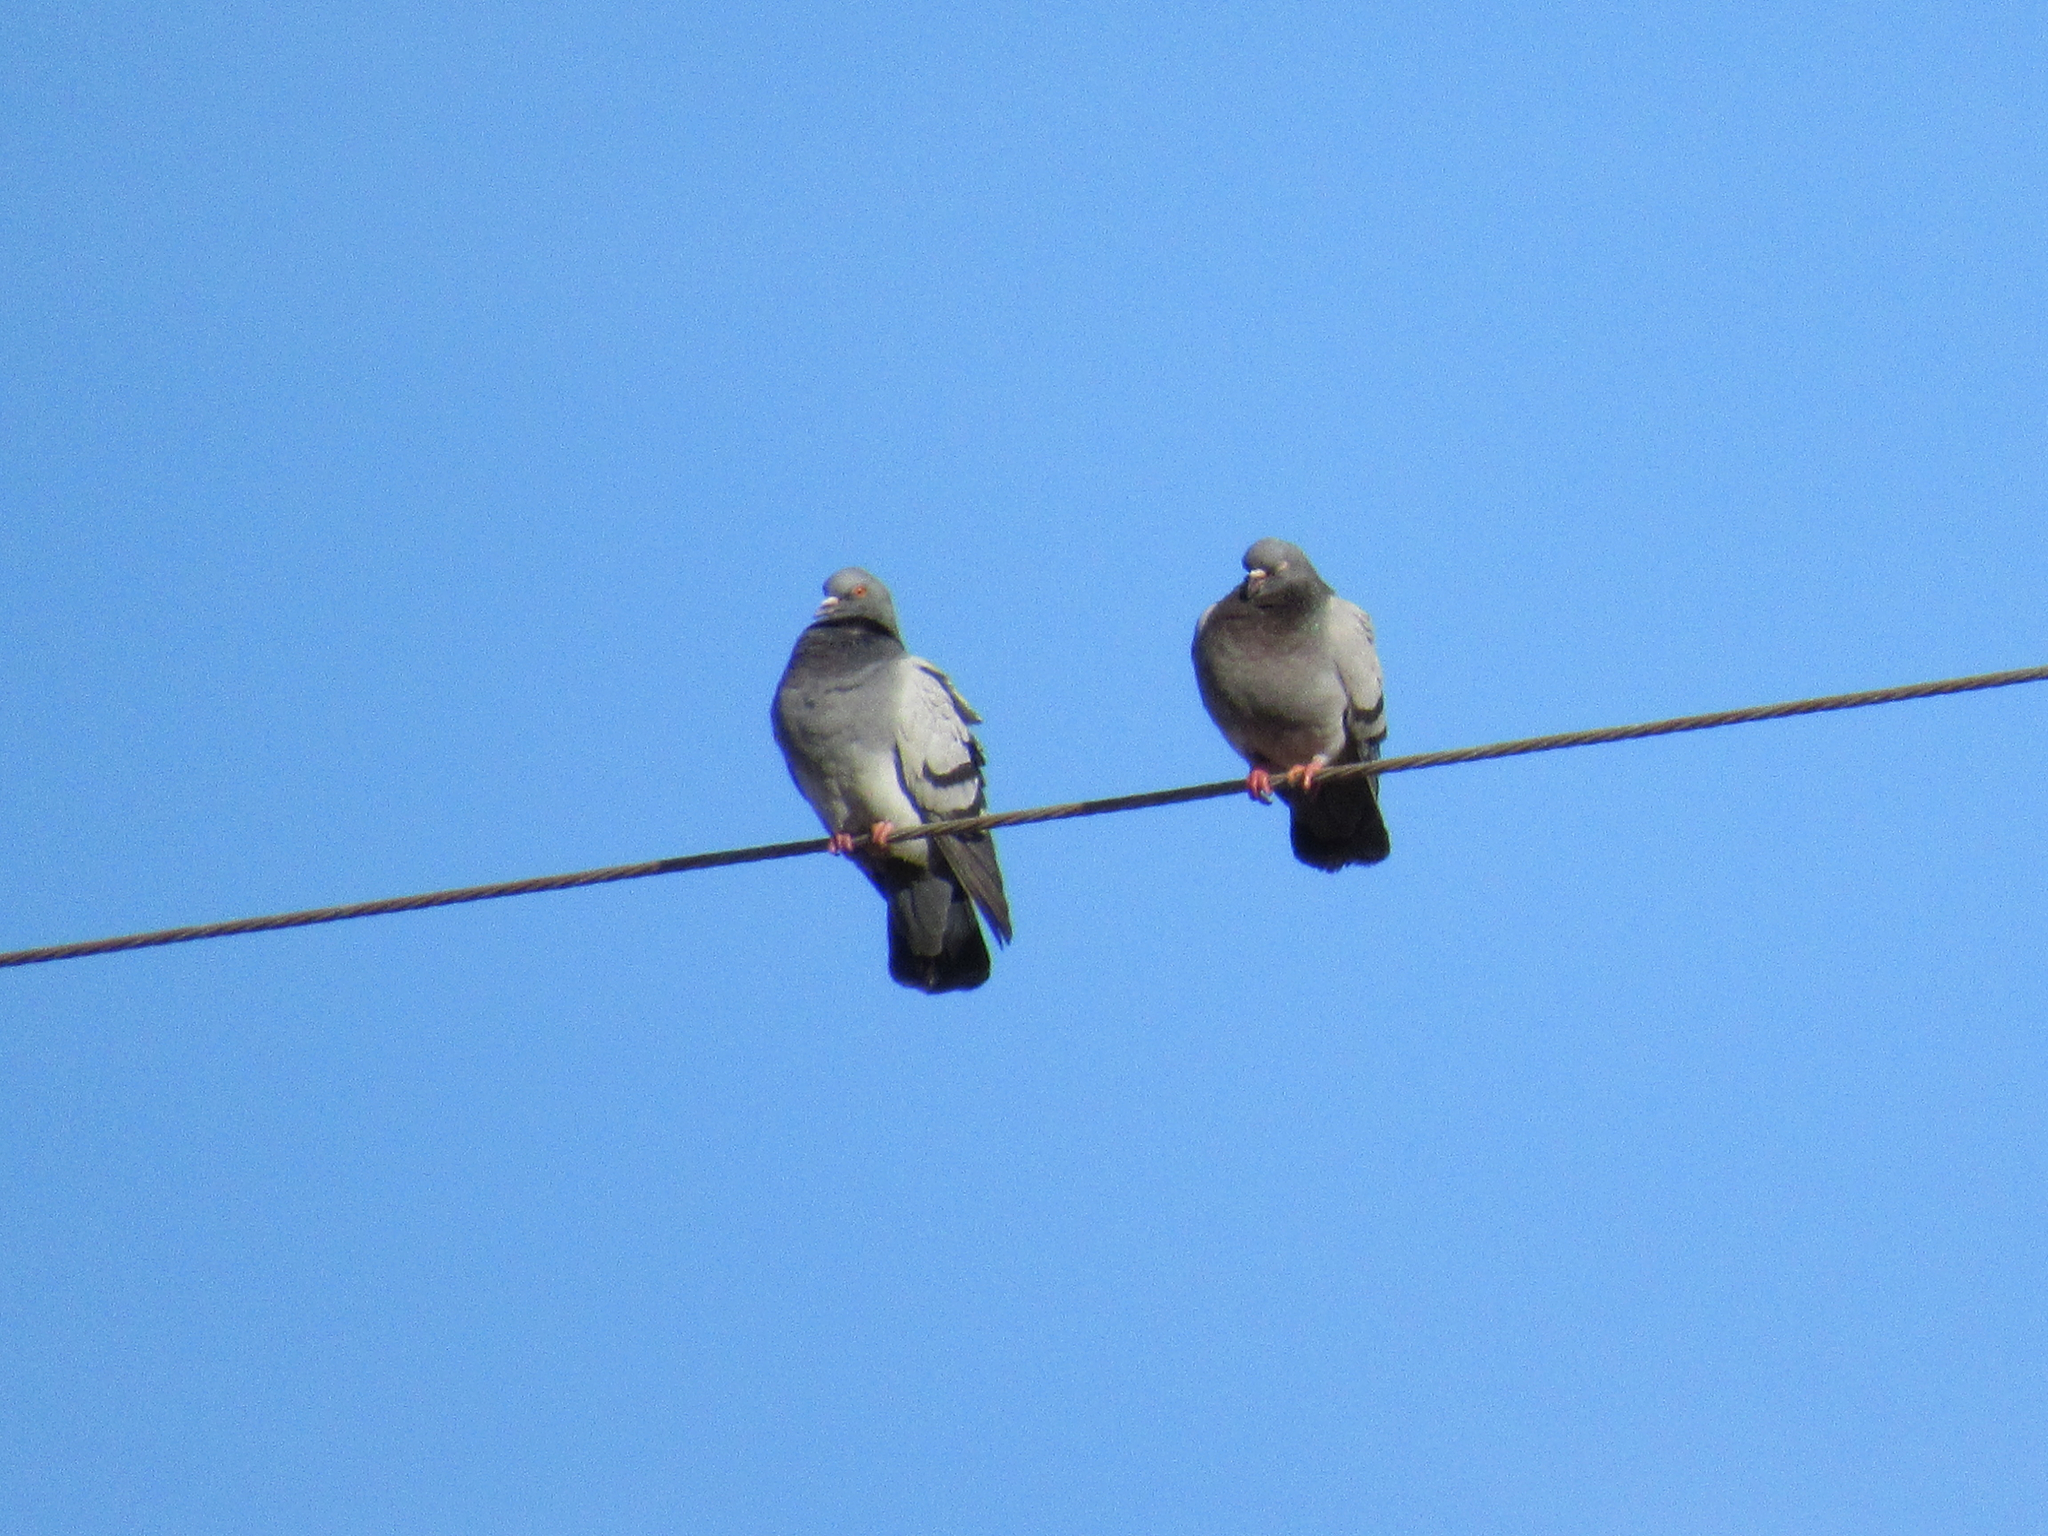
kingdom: Animalia
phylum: Chordata
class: Aves
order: Columbiformes
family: Columbidae
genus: Columba
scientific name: Columba livia
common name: Rock pigeon
